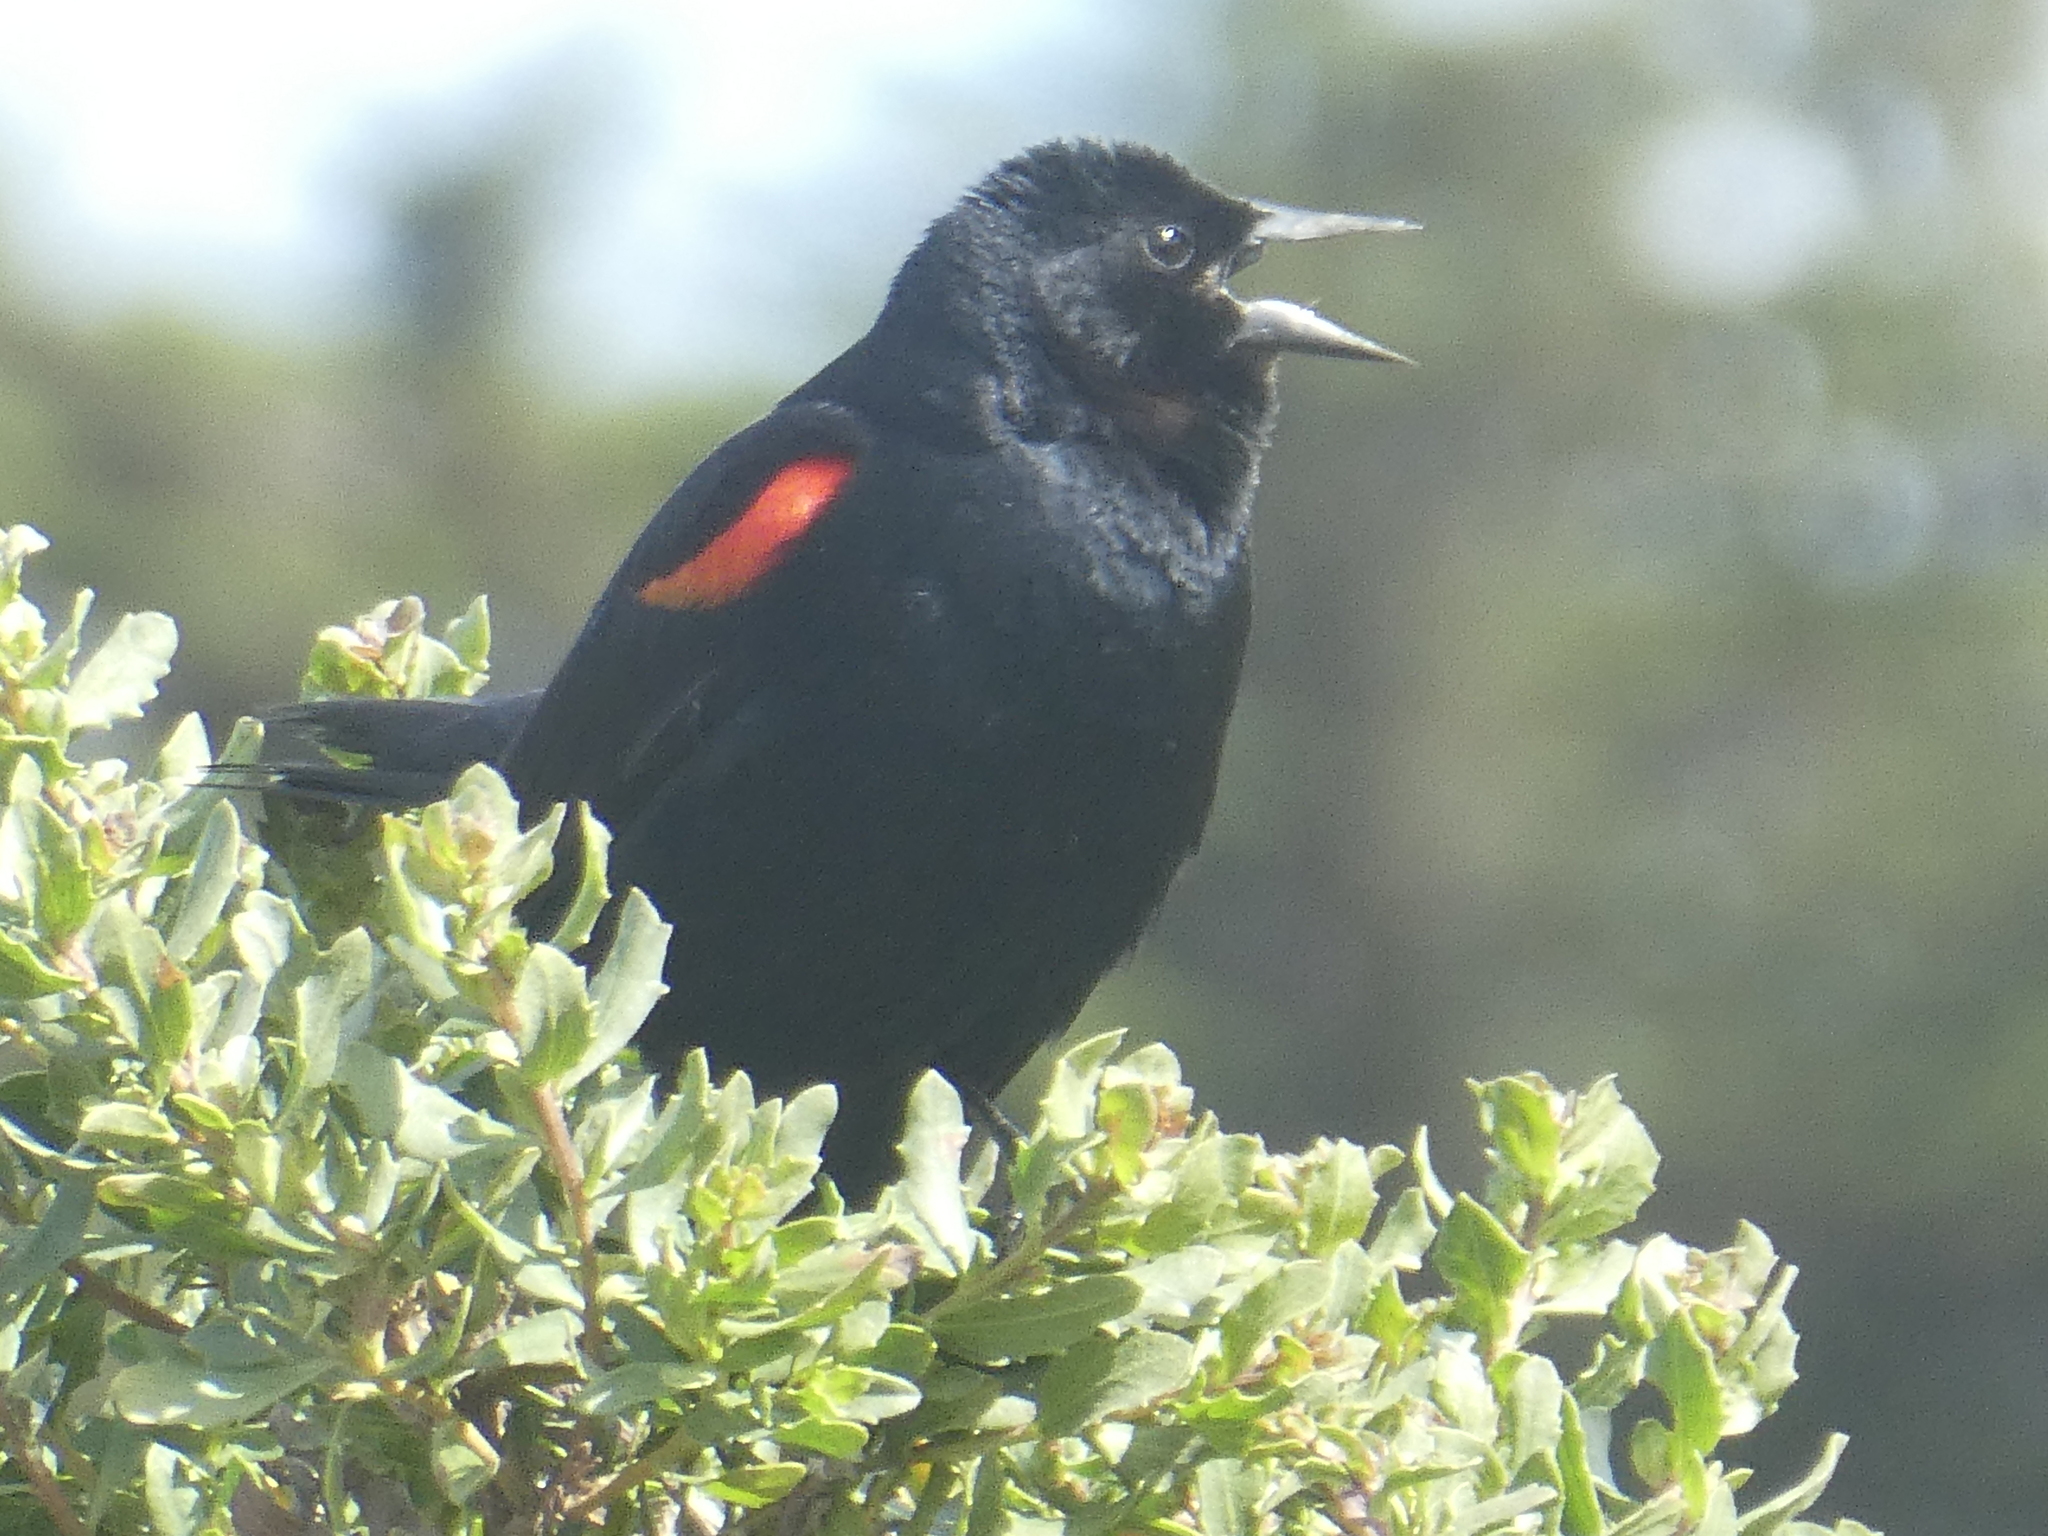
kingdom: Animalia
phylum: Chordata
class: Aves
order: Passeriformes
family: Icteridae
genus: Agelaius
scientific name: Agelaius phoeniceus
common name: Red-winged blackbird
